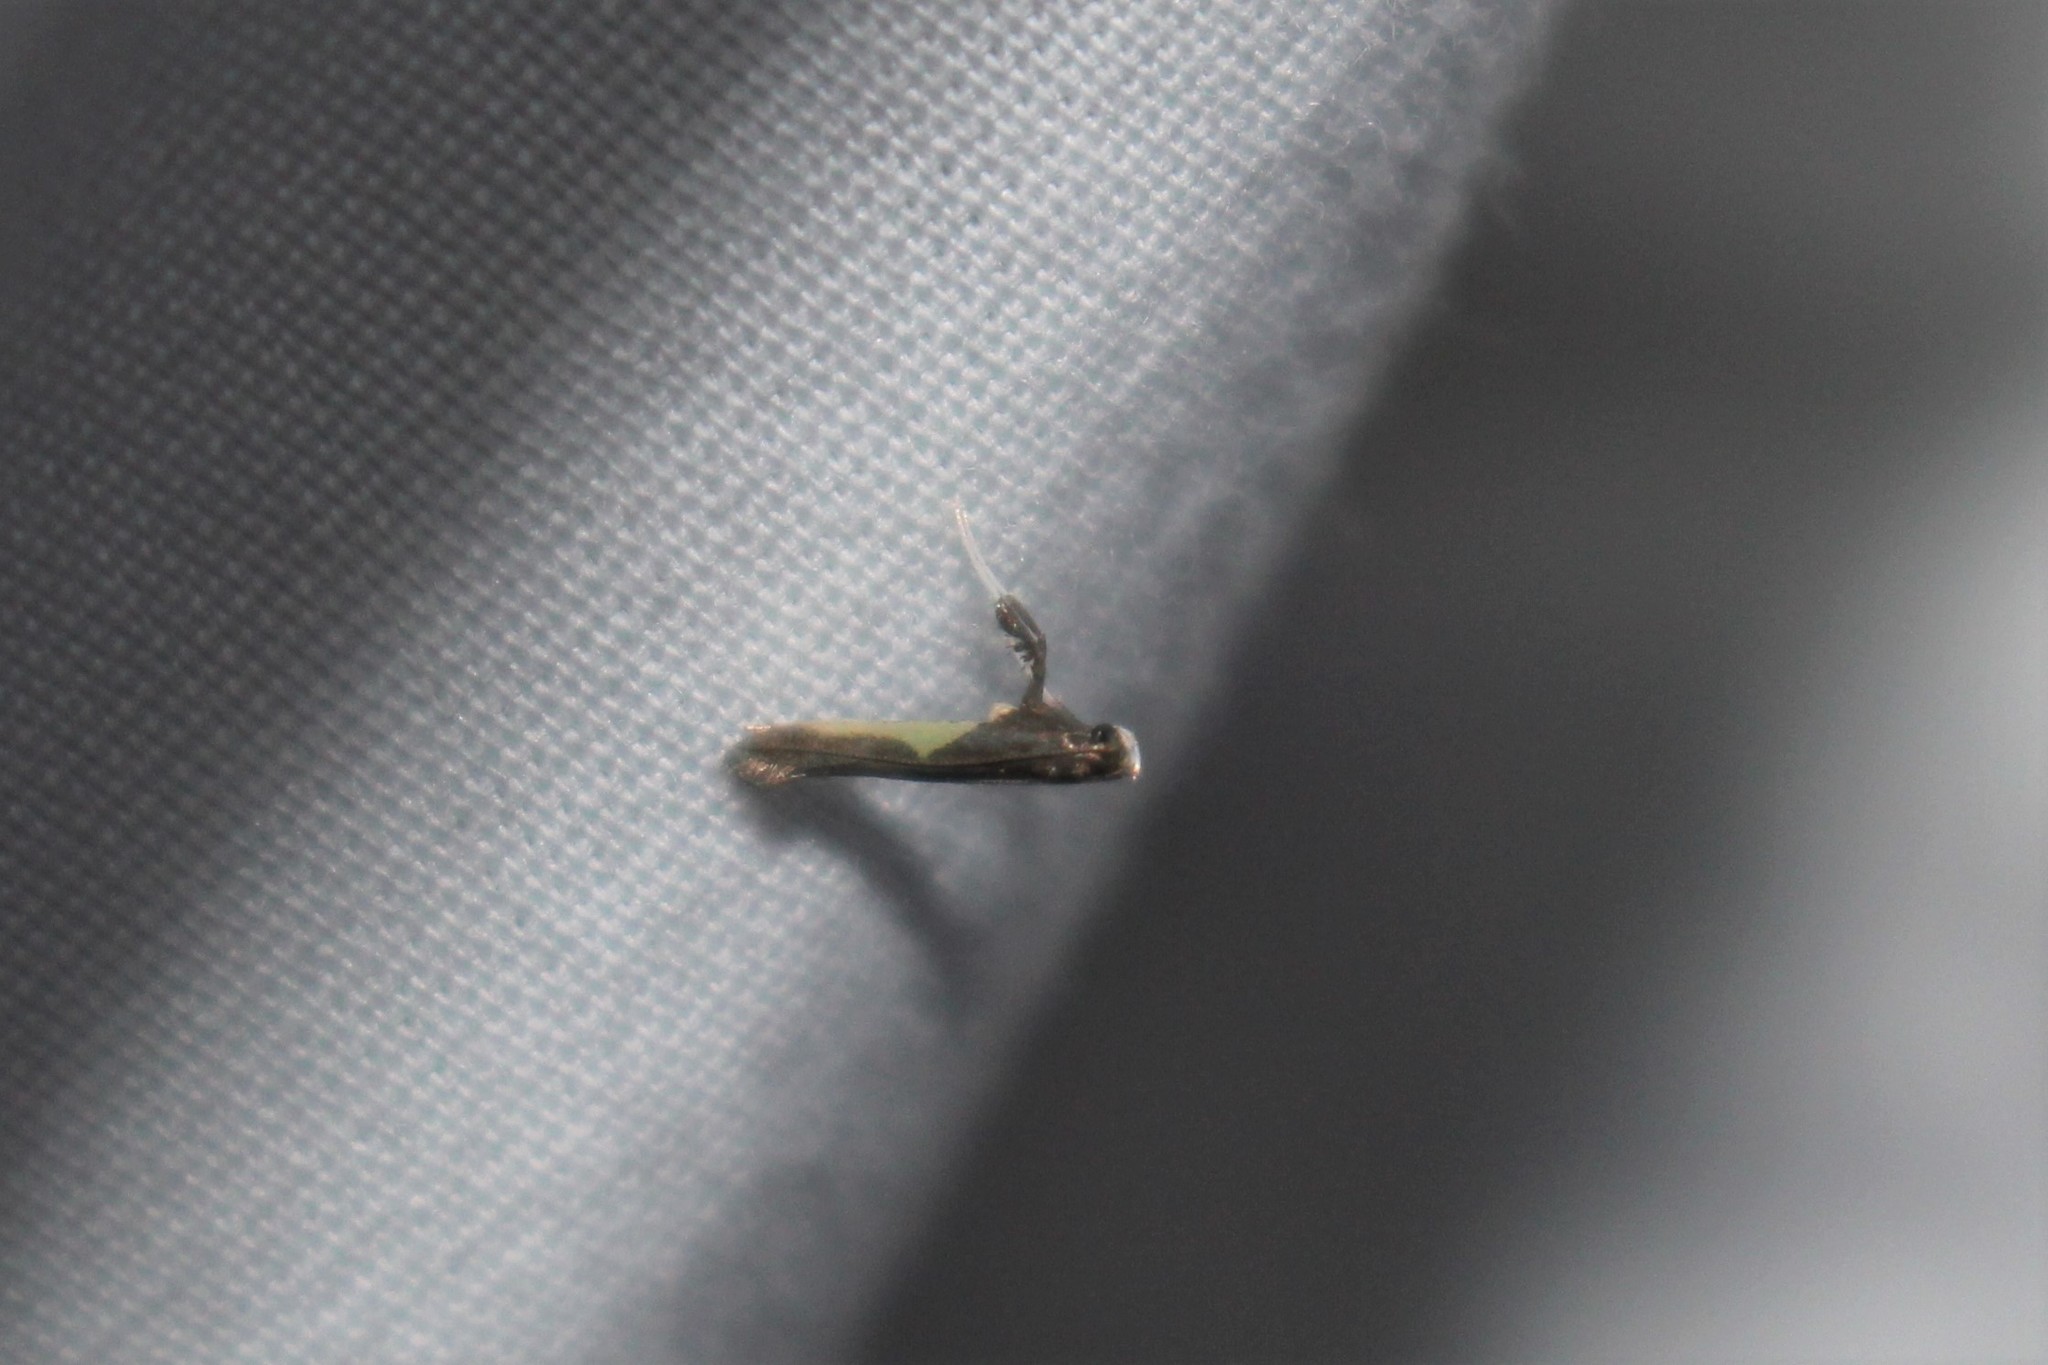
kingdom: Animalia
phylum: Arthropoda
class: Insecta
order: Lepidoptera
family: Gracillariidae
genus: Caloptilia
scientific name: Caloptilia belfragella
